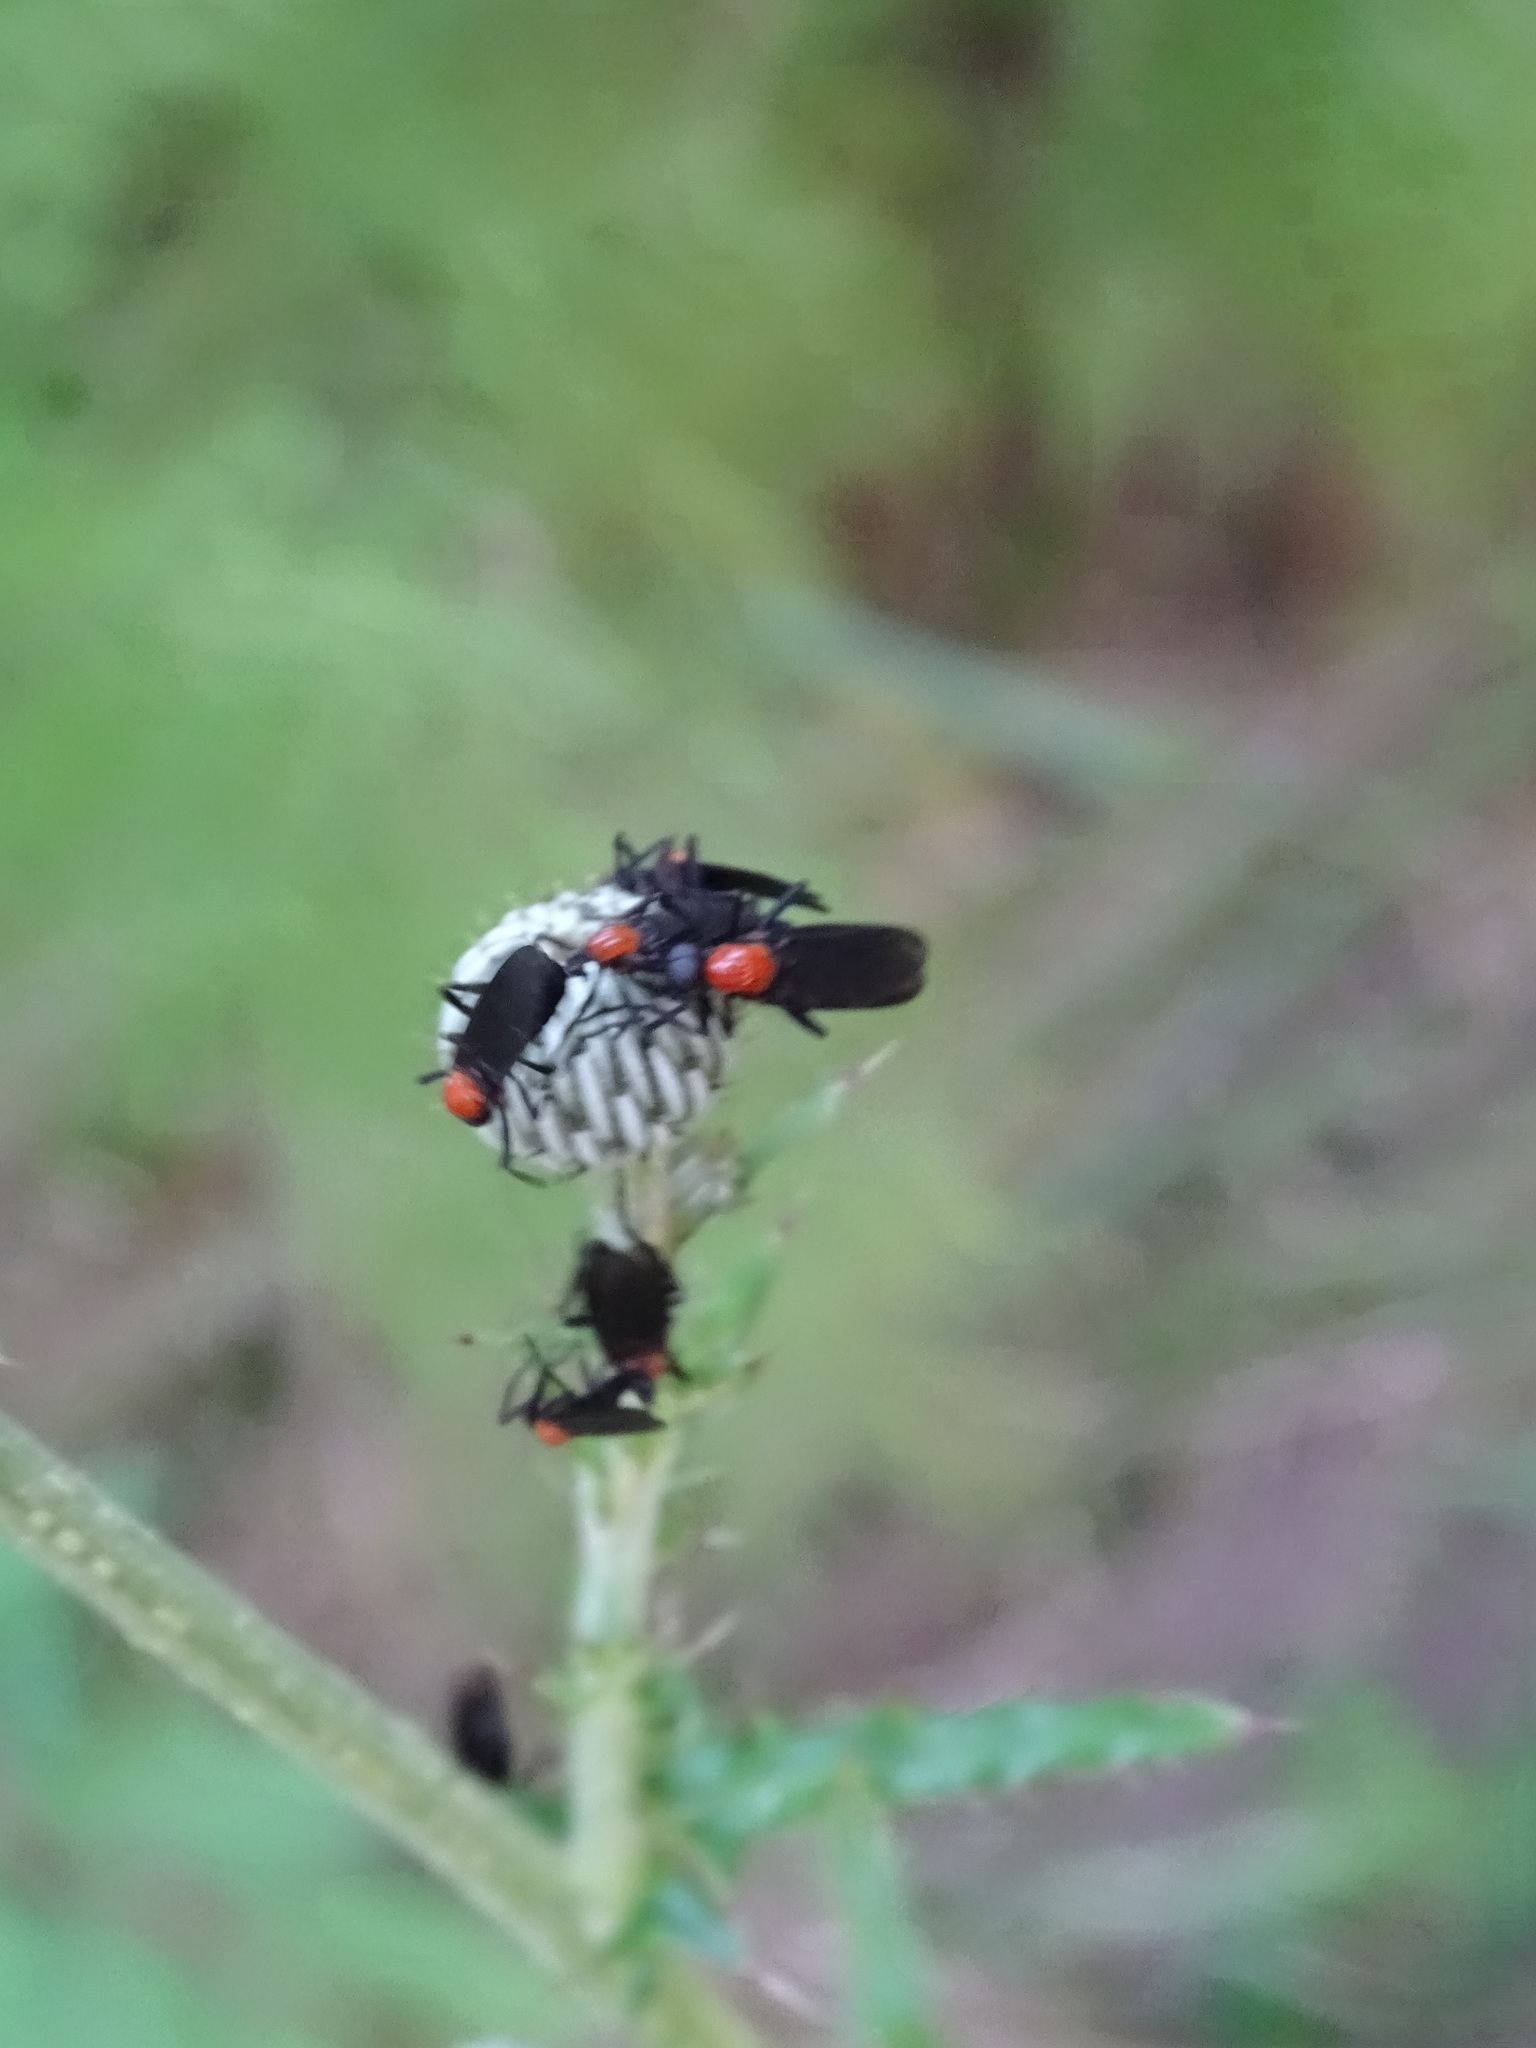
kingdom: Animalia
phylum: Arthropoda
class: Insecta
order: Diptera
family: Bibionidae
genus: Plecia
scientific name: Plecia nearctica
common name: March fly
